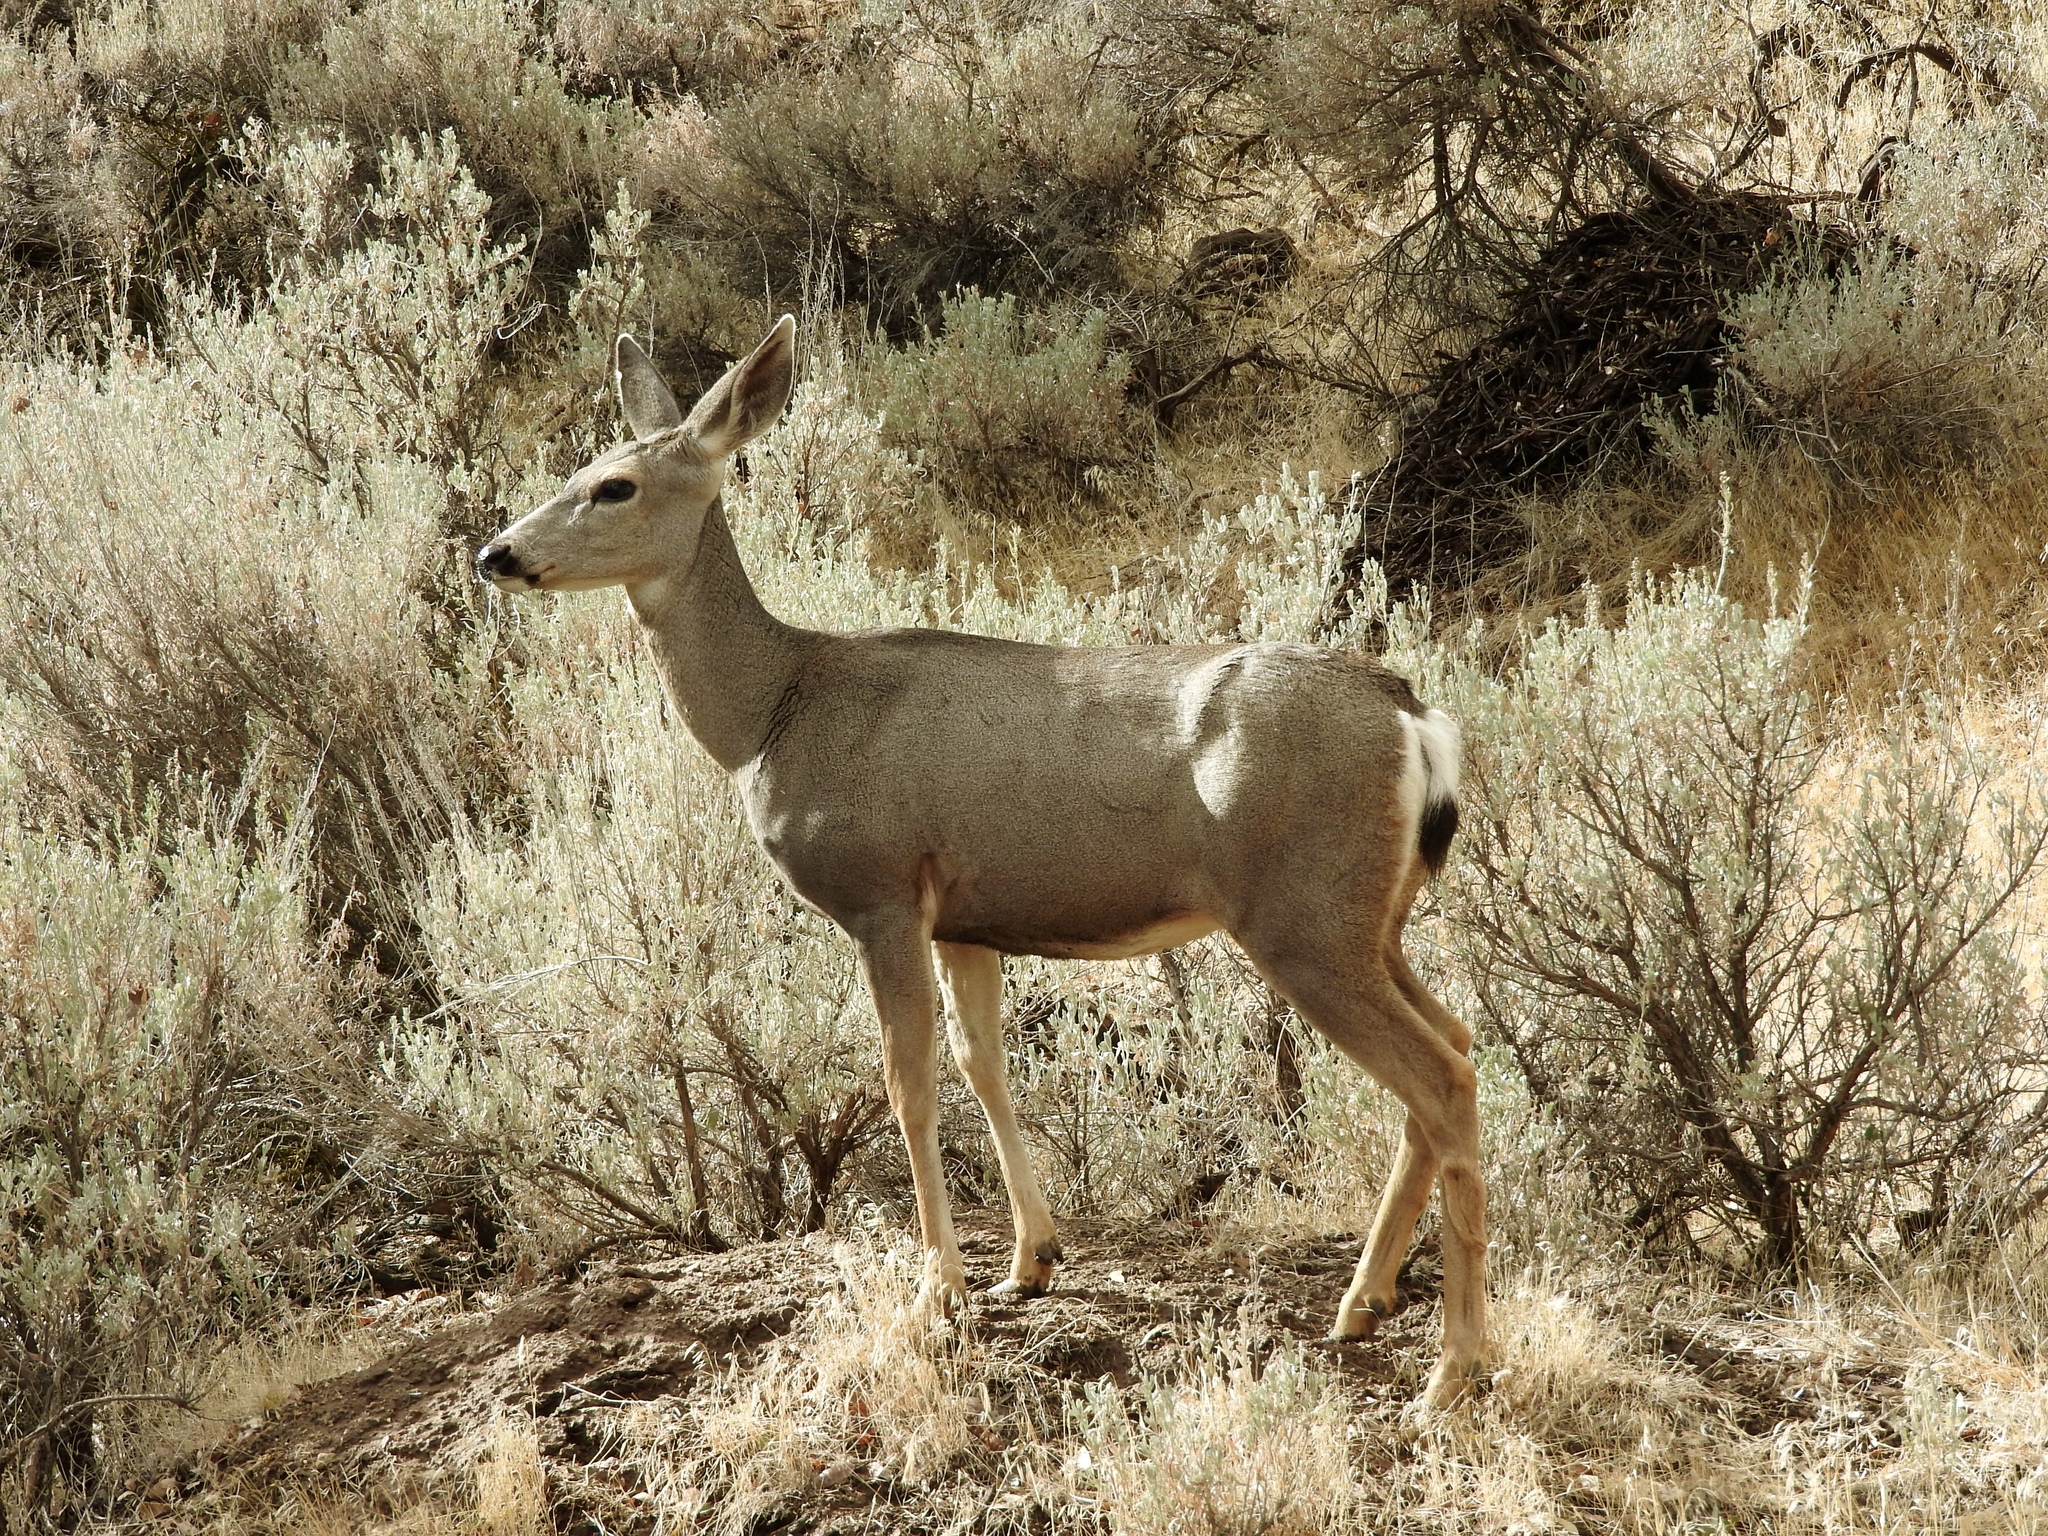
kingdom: Animalia
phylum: Chordata
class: Mammalia
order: Artiodactyla
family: Cervidae
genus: Odocoileus
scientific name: Odocoileus hemionus
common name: Mule deer
